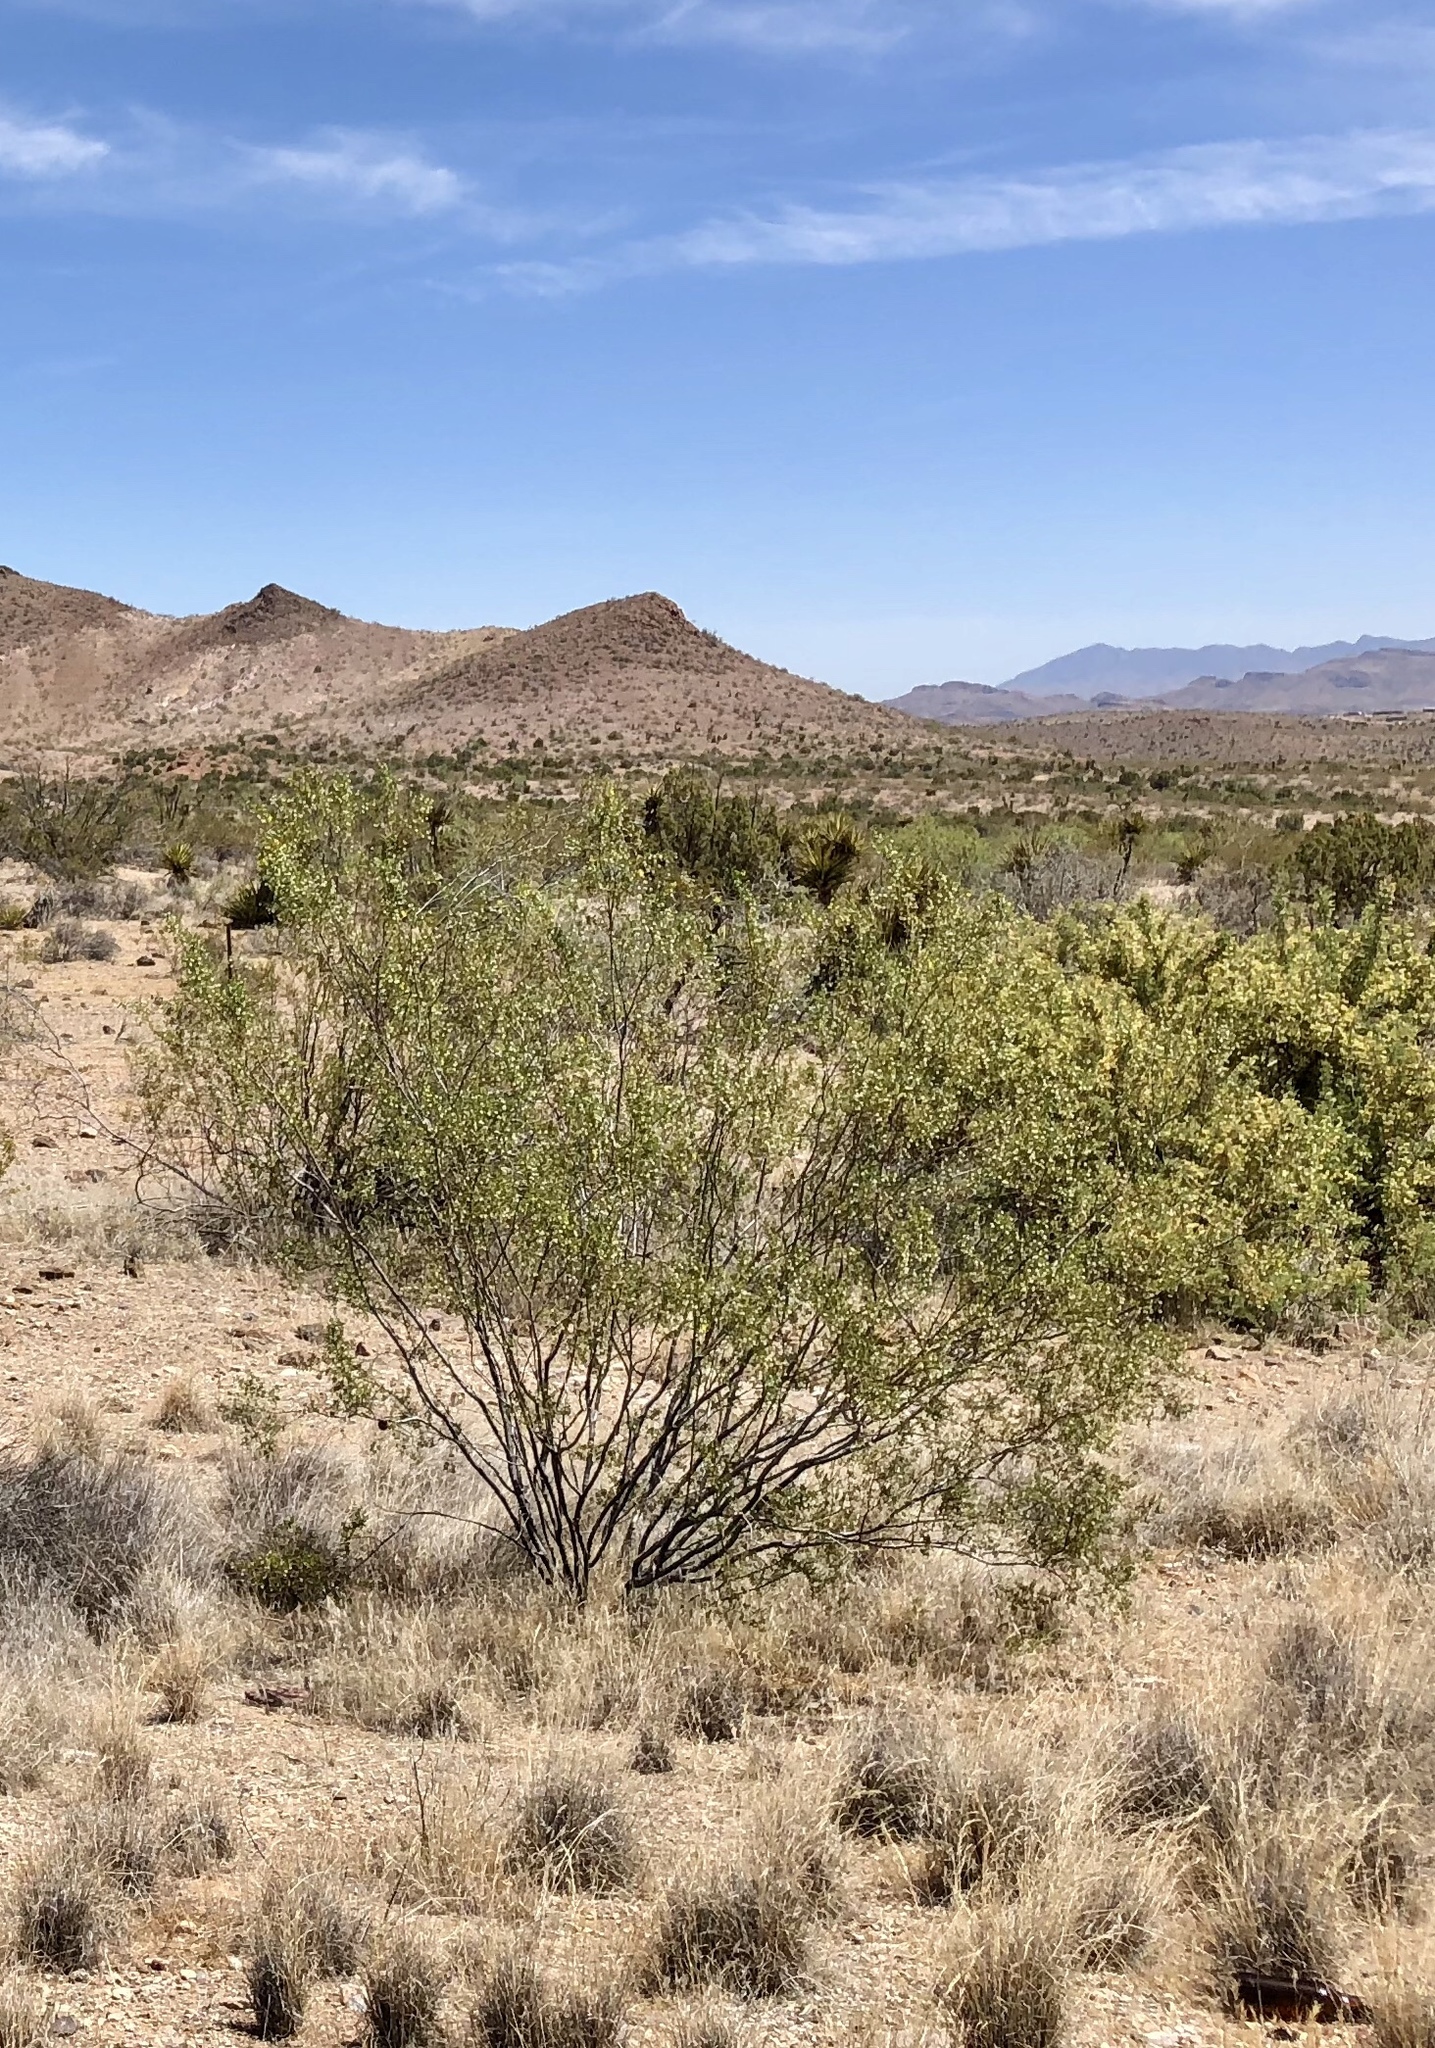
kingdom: Plantae
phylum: Tracheophyta
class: Magnoliopsida
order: Zygophyllales
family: Zygophyllaceae
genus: Larrea
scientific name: Larrea tridentata
